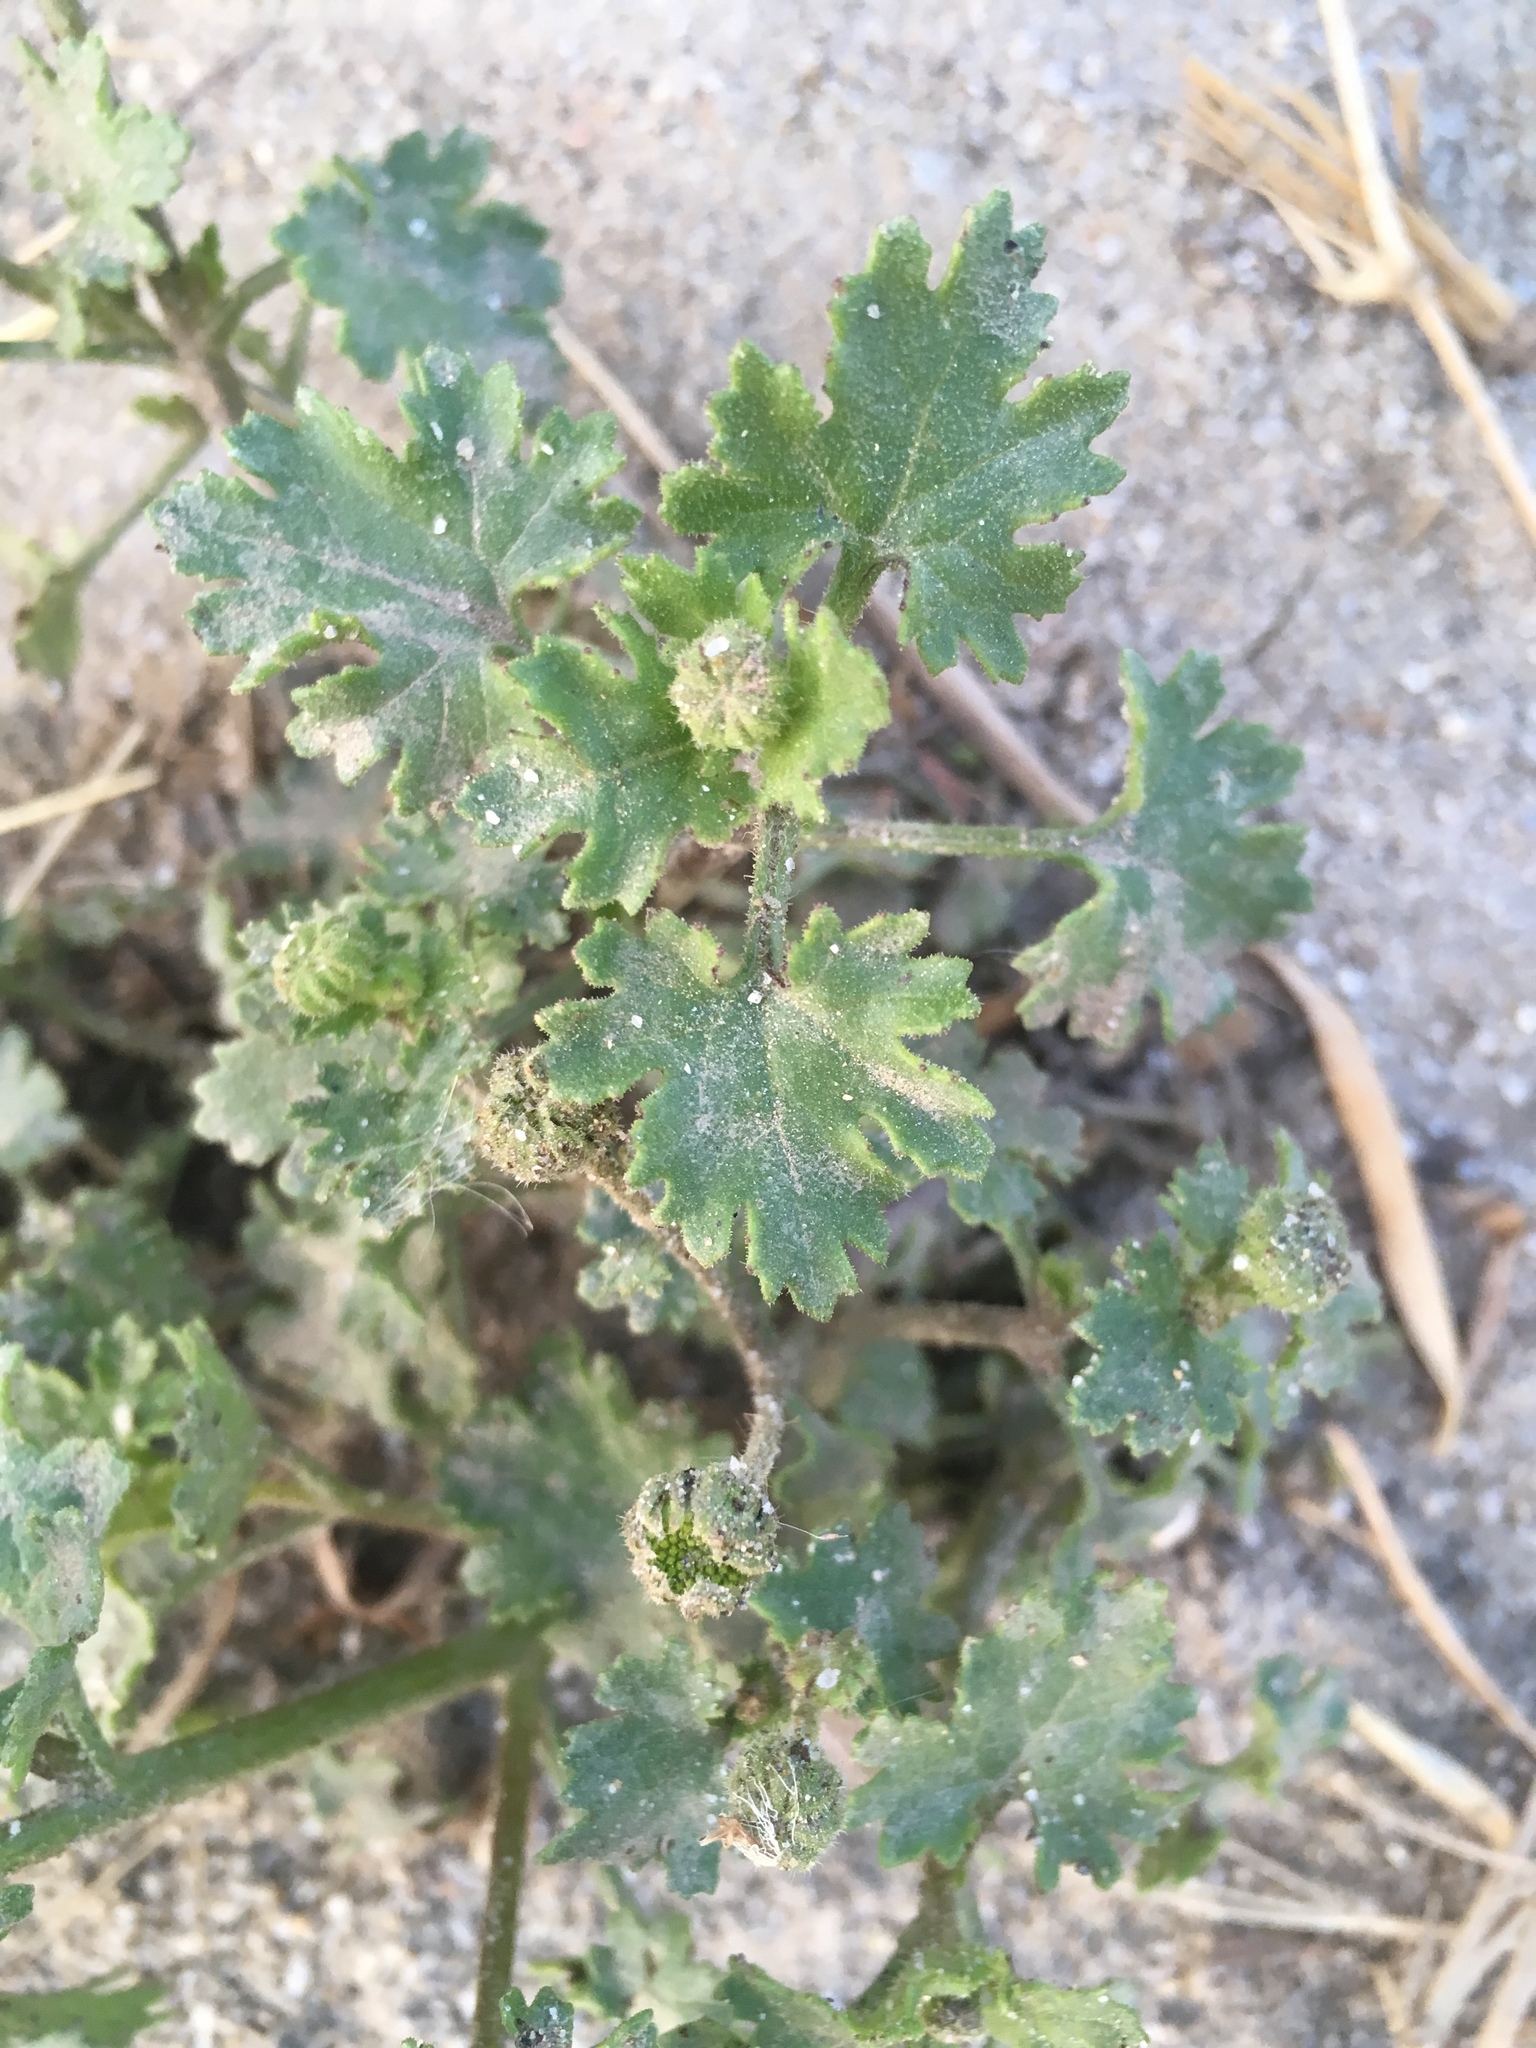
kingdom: Plantae
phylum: Tracheophyta
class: Magnoliopsida
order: Asterales
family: Asteraceae
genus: Laphamia
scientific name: Laphamia emoryi
